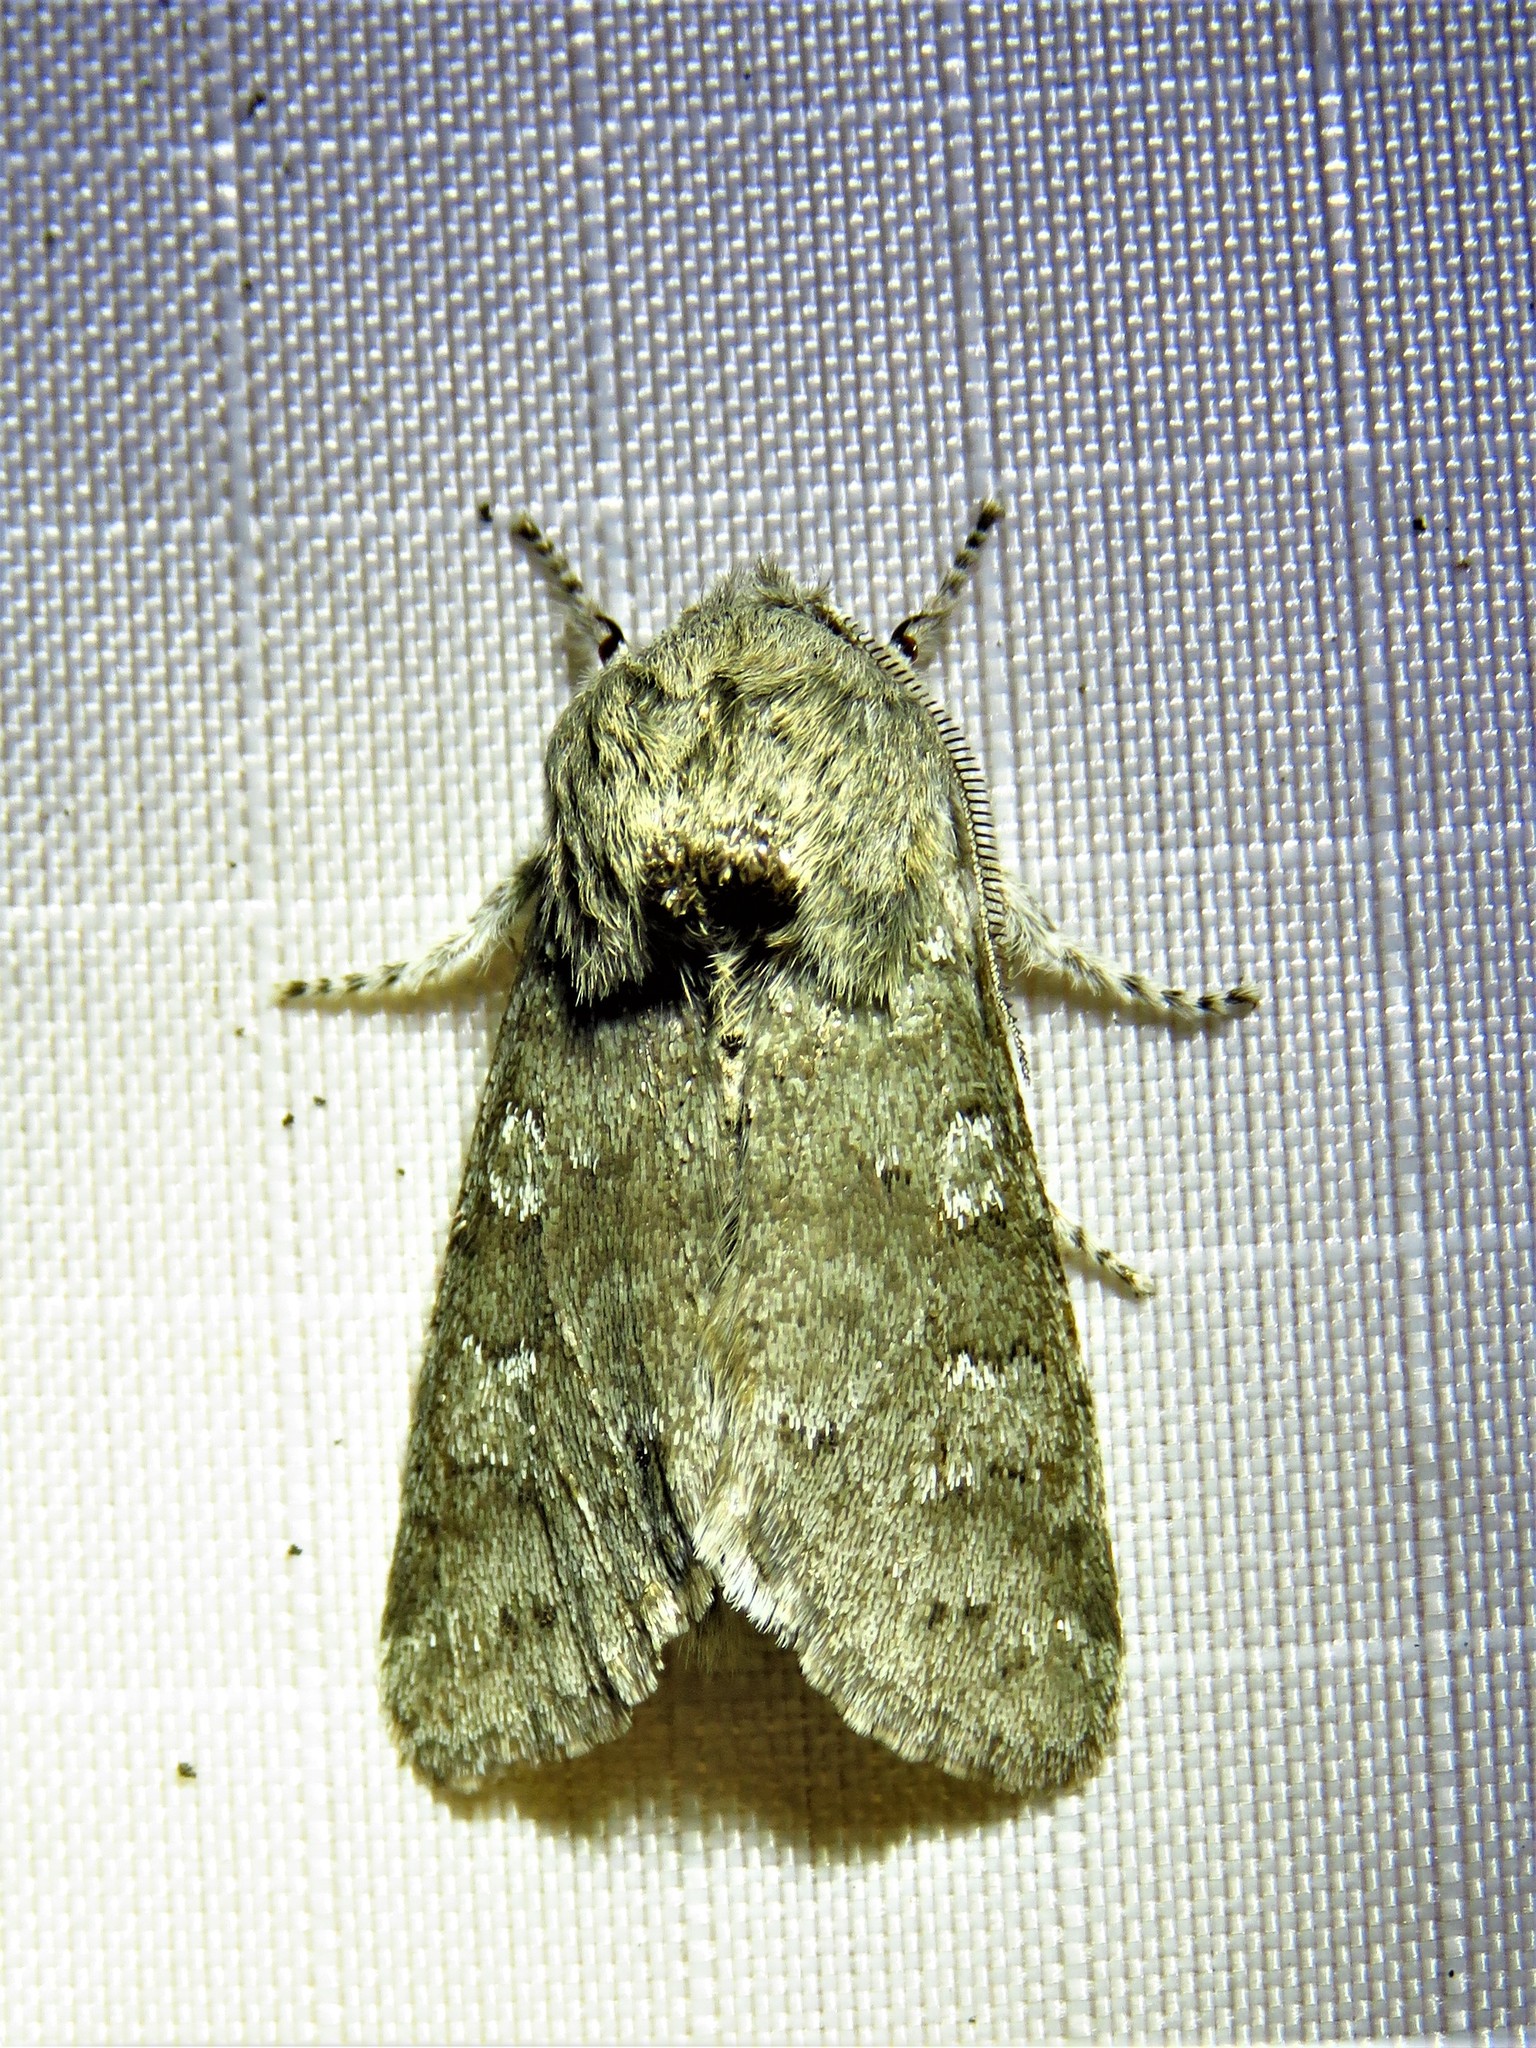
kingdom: Animalia
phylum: Arthropoda
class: Insecta
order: Lepidoptera
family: Noctuidae
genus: Psaphida
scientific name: Psaphida rolandi
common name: Roland's sallow
